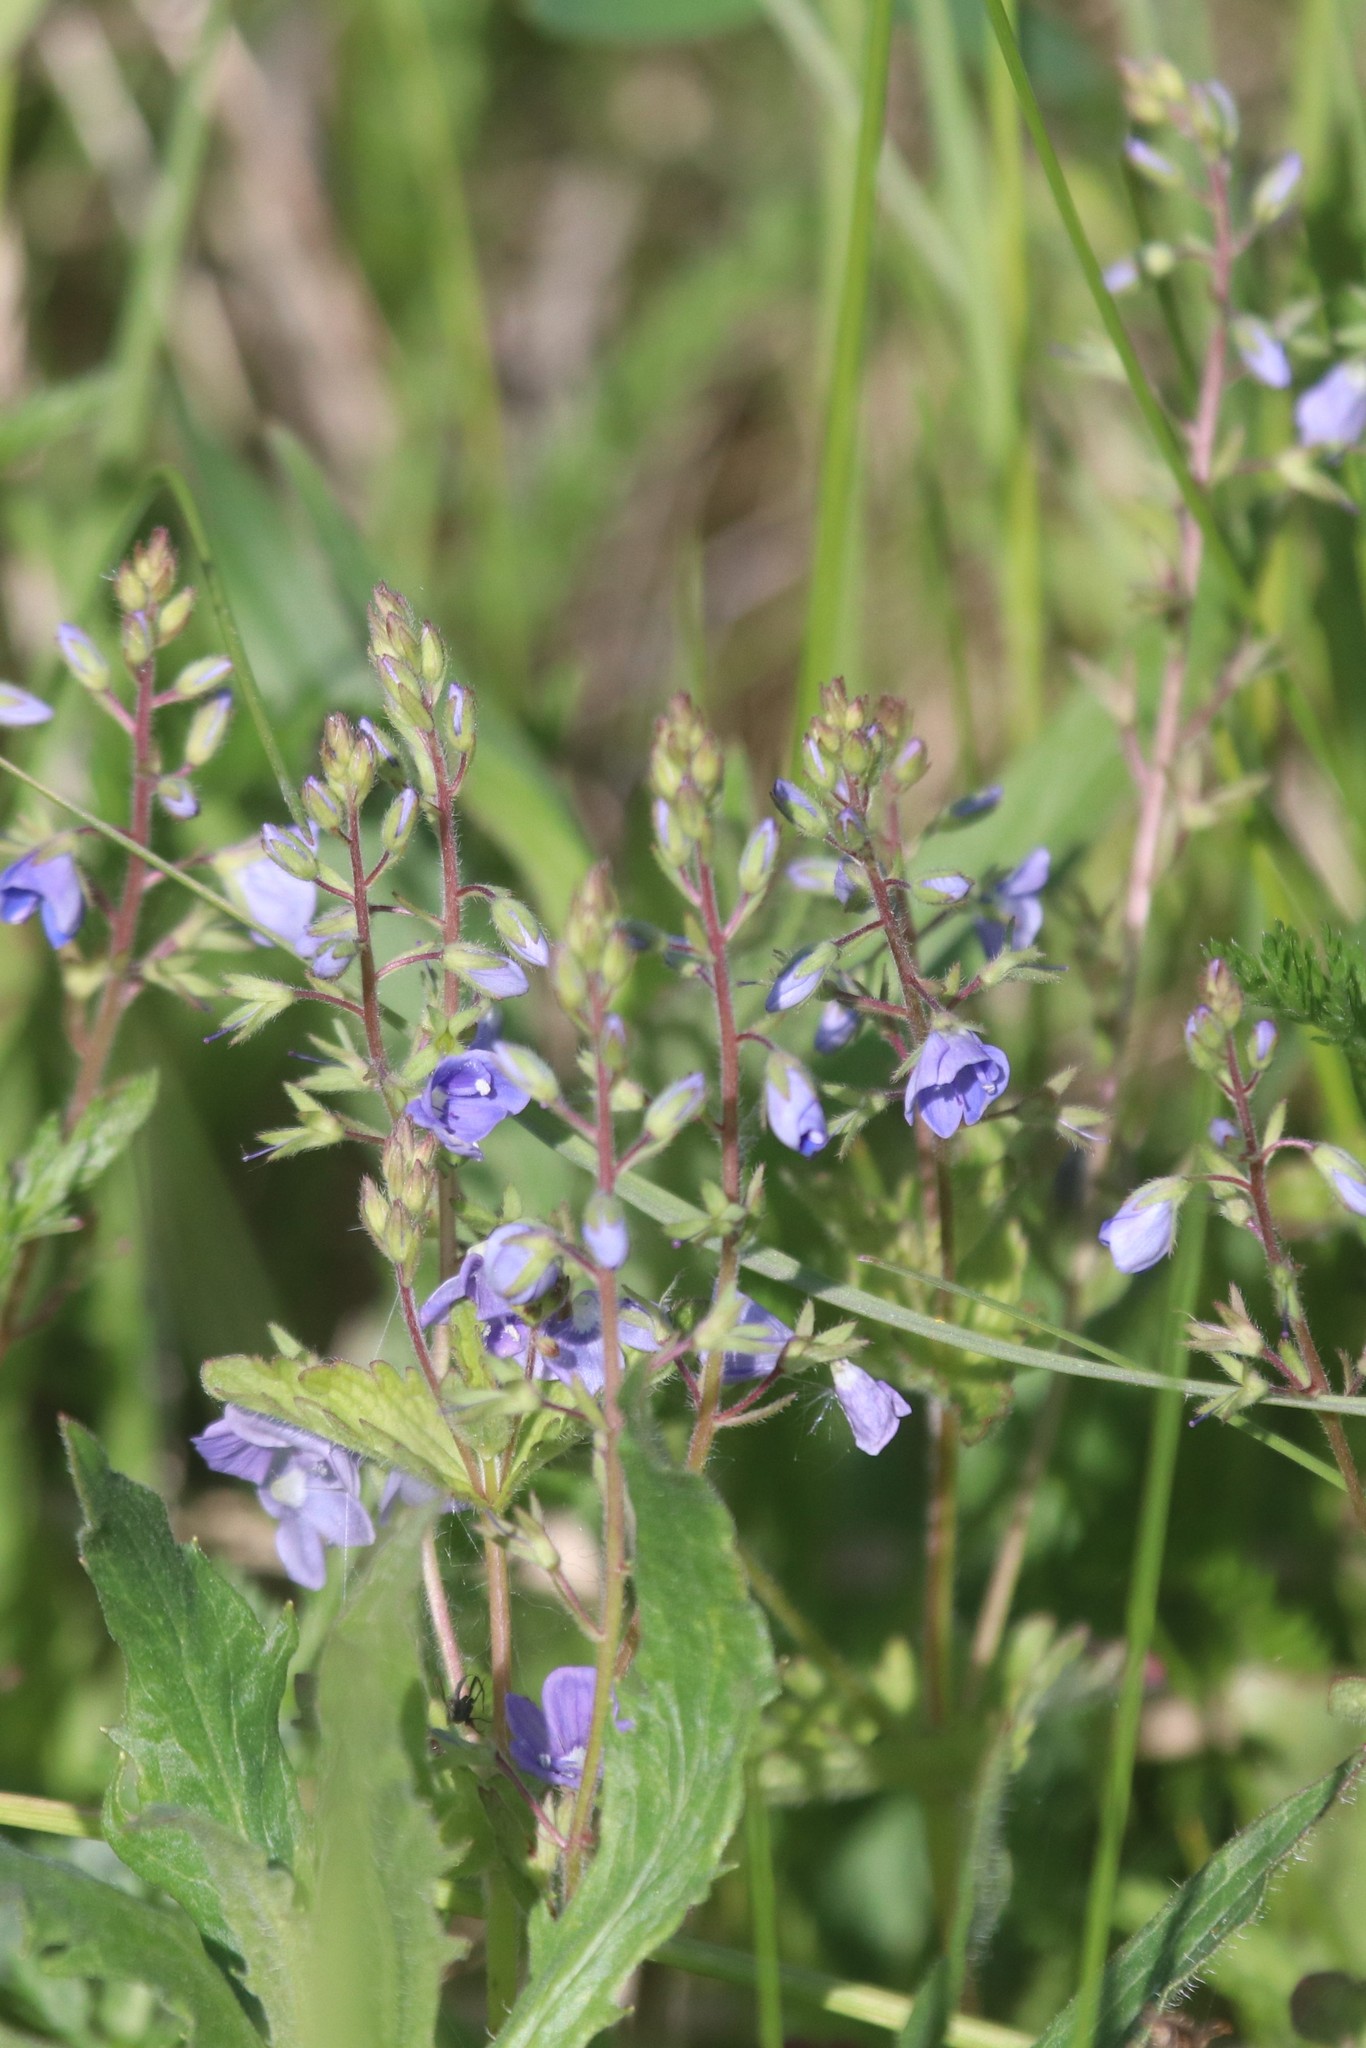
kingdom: Plantae
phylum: Tracheophyta
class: Magnoliopsida
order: Lamiales
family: Plantaginaceae
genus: Veronica
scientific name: Veronica chamaedrys
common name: Germander speedwell
